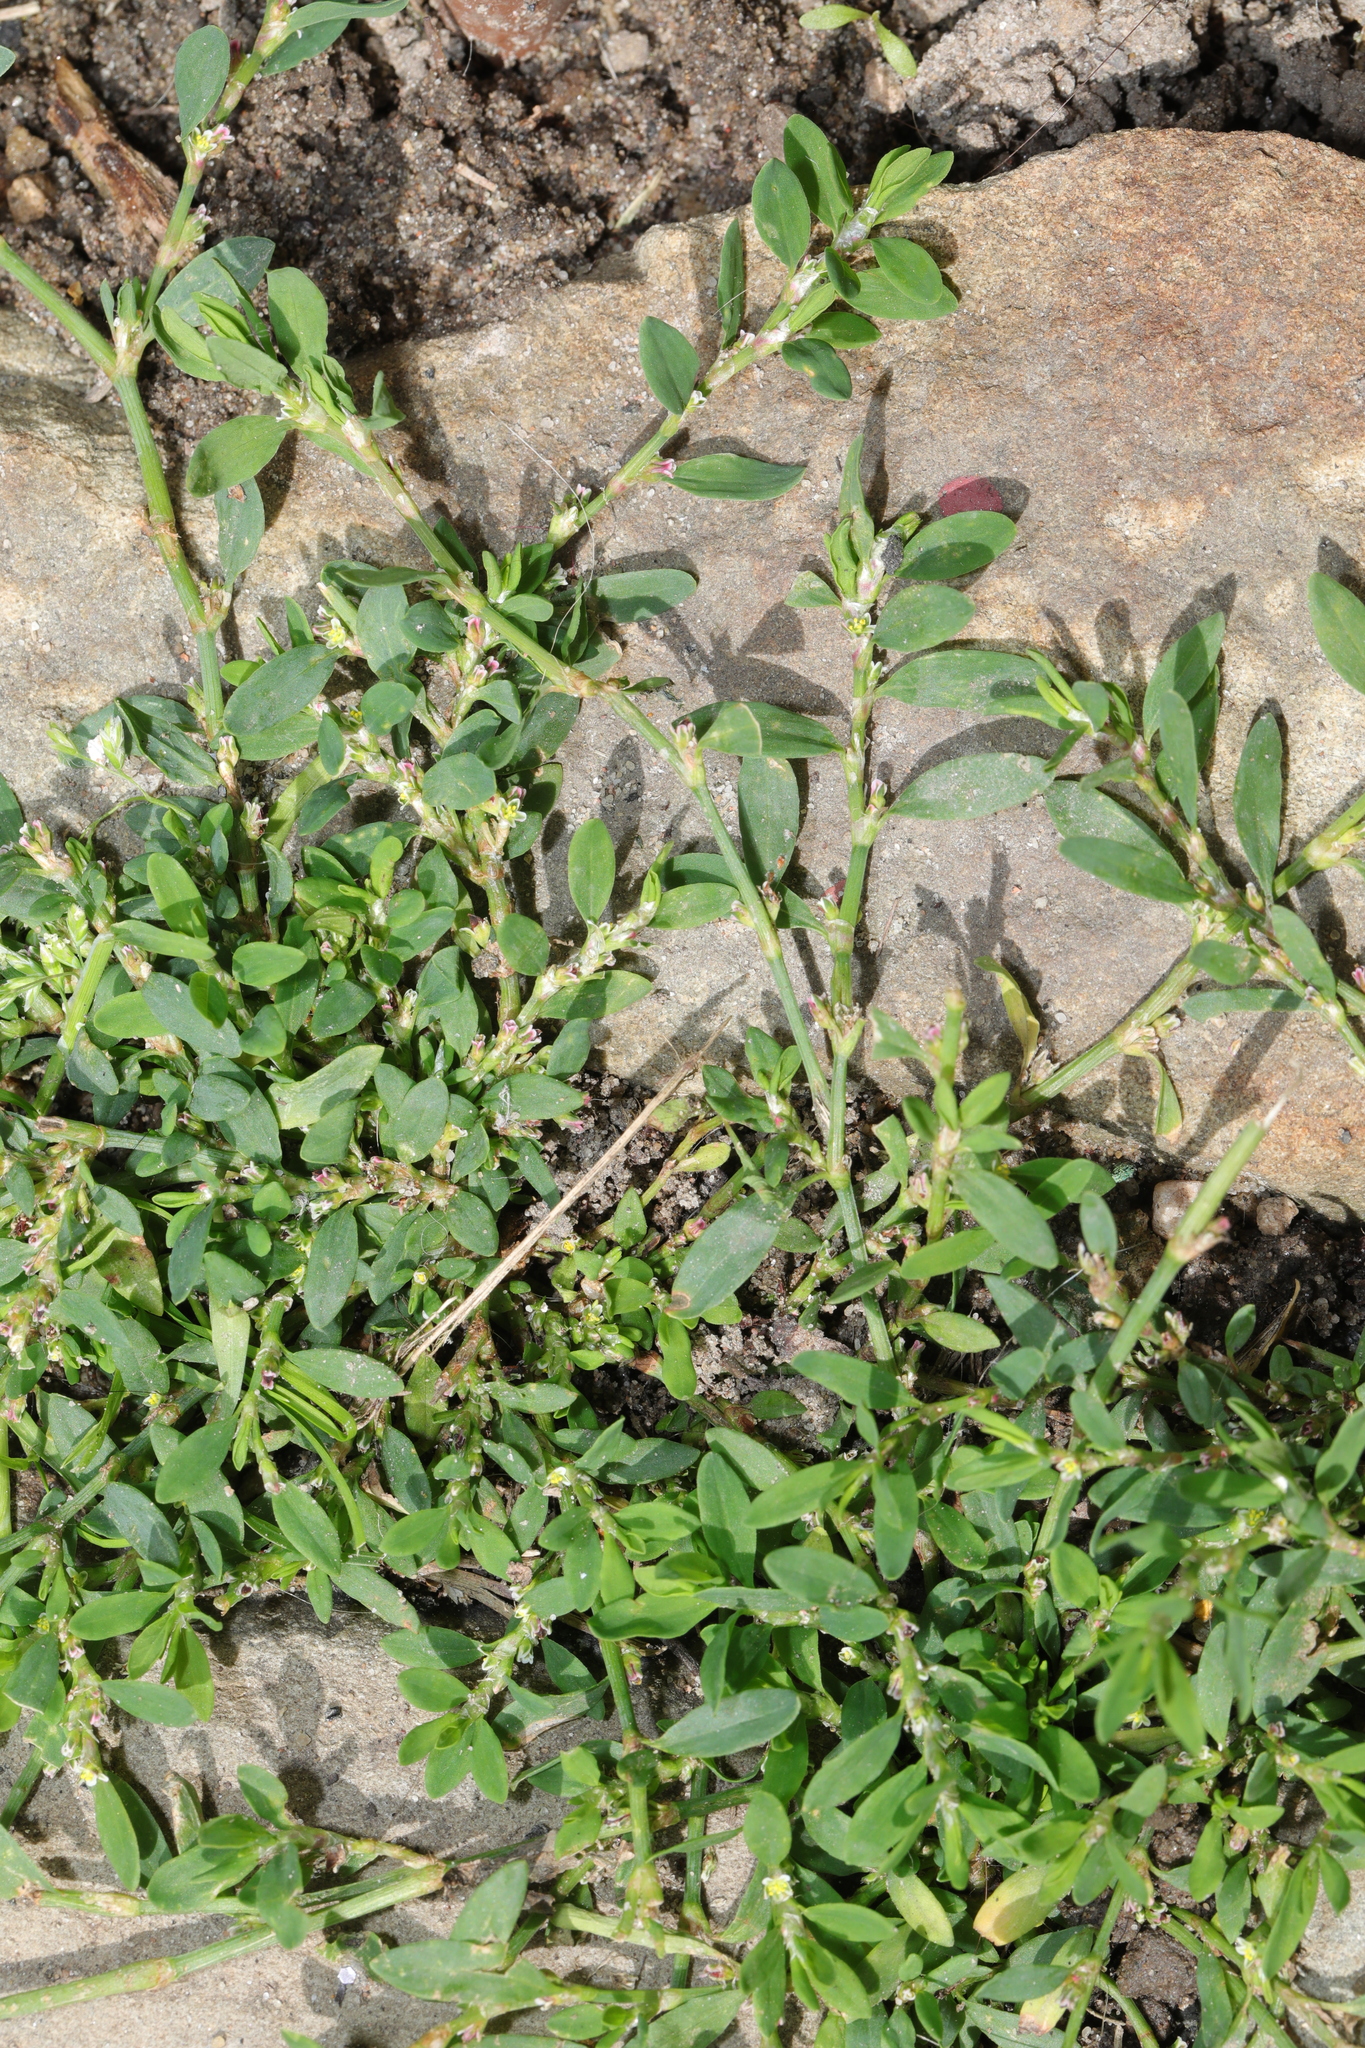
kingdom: Plantae
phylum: Tracheophyta
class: Magnoliopsida
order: Caryophyllales
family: Polygonaceae
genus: Polygonum
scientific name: Polygonum aviculare
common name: Prostrate knotweed
